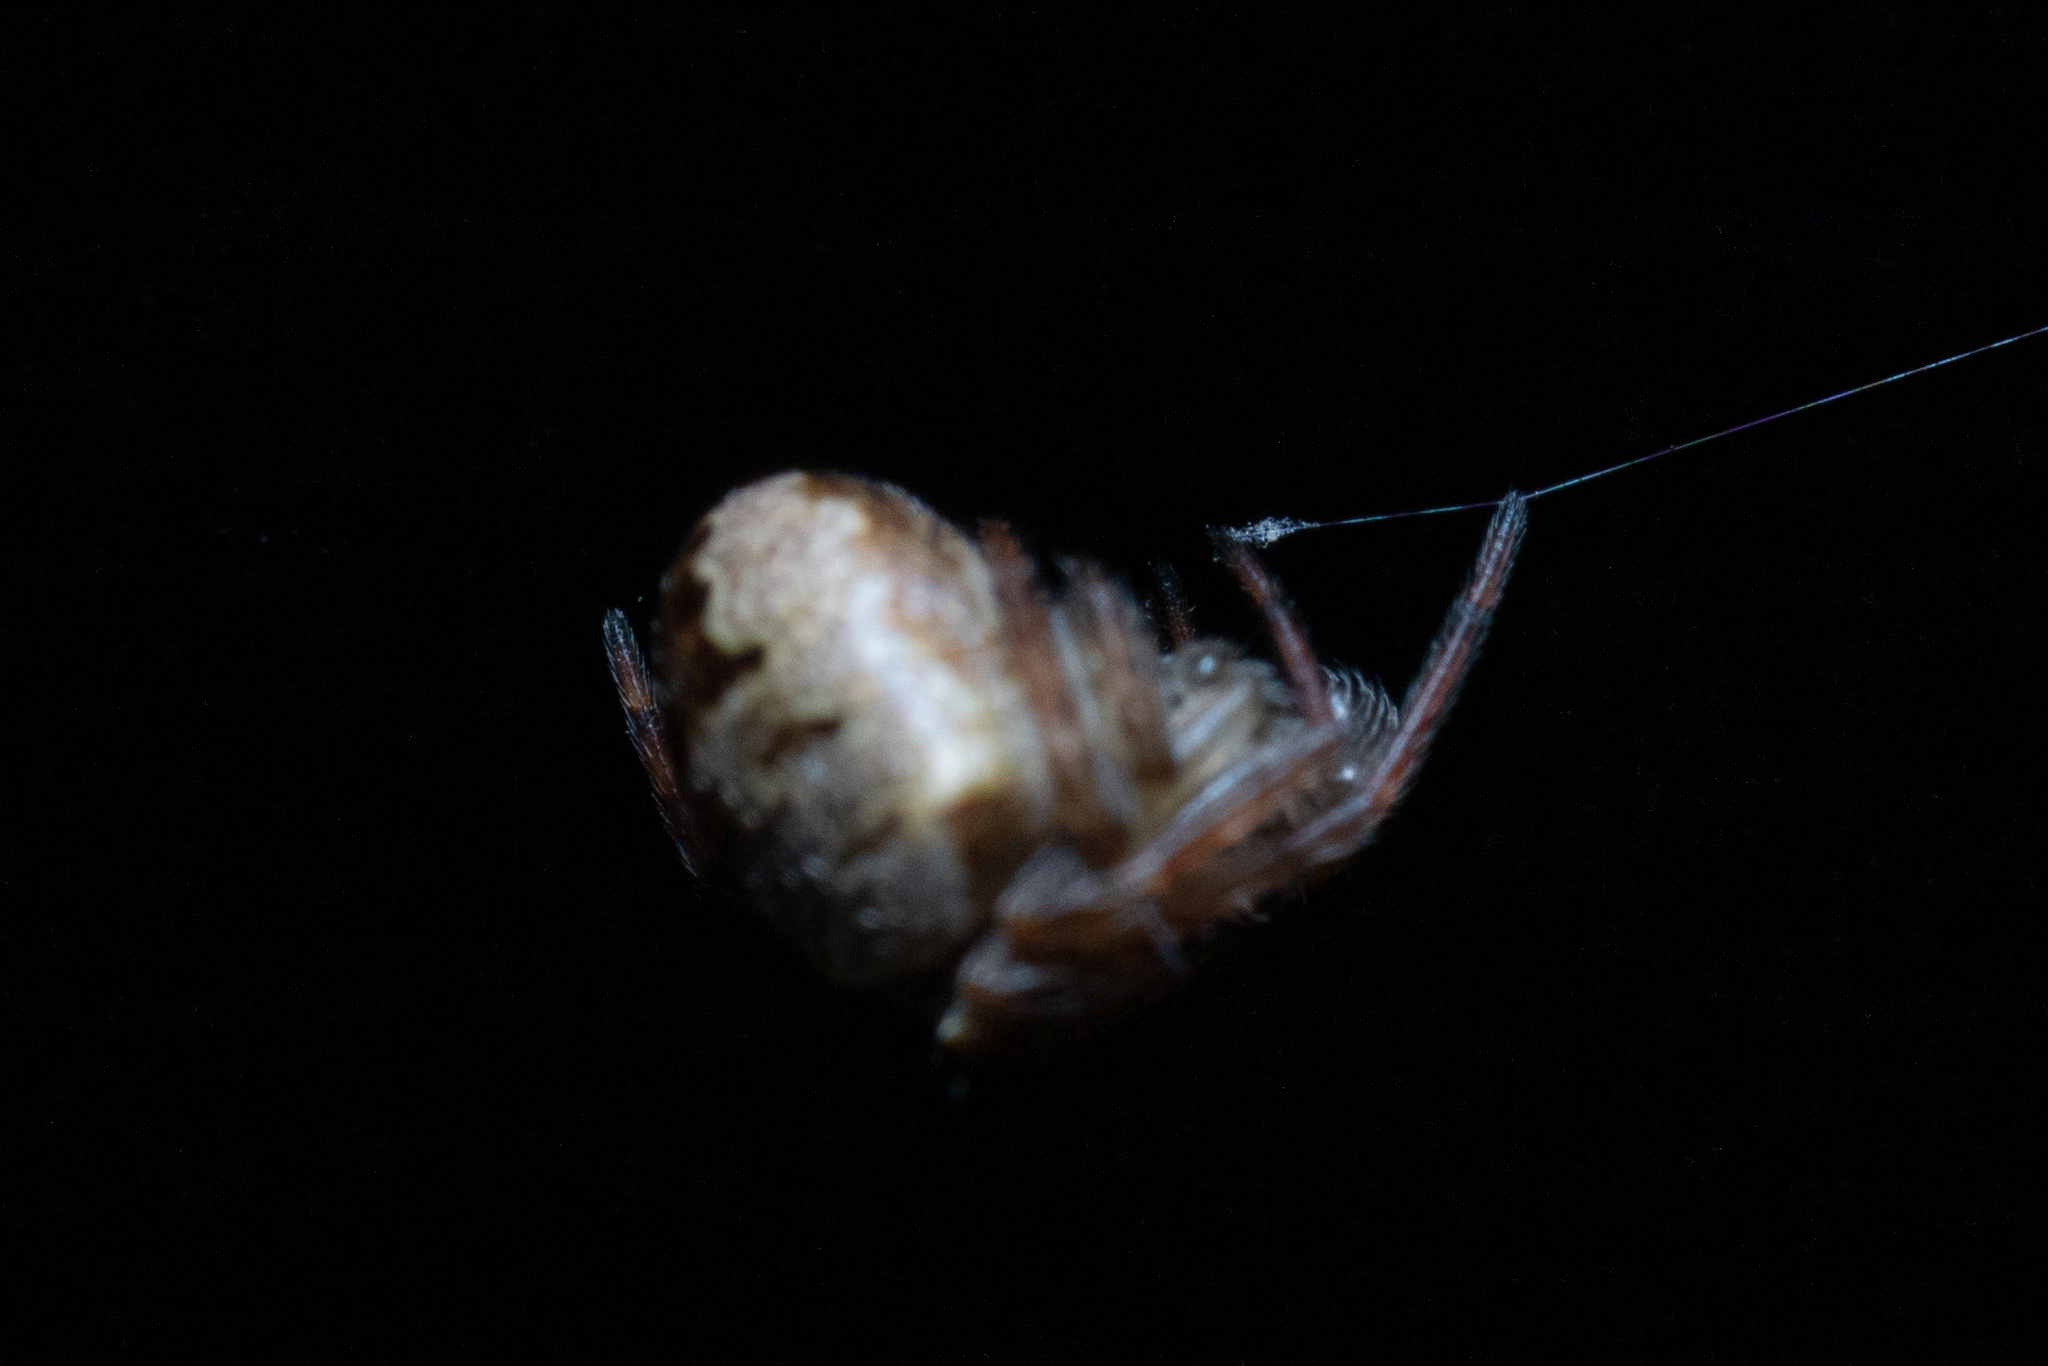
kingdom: Animalia
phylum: Arthropoda
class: Arachnida
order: Araneae
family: Araneidae
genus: Zilla
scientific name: Zilla diodia
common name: Zilla diodia
